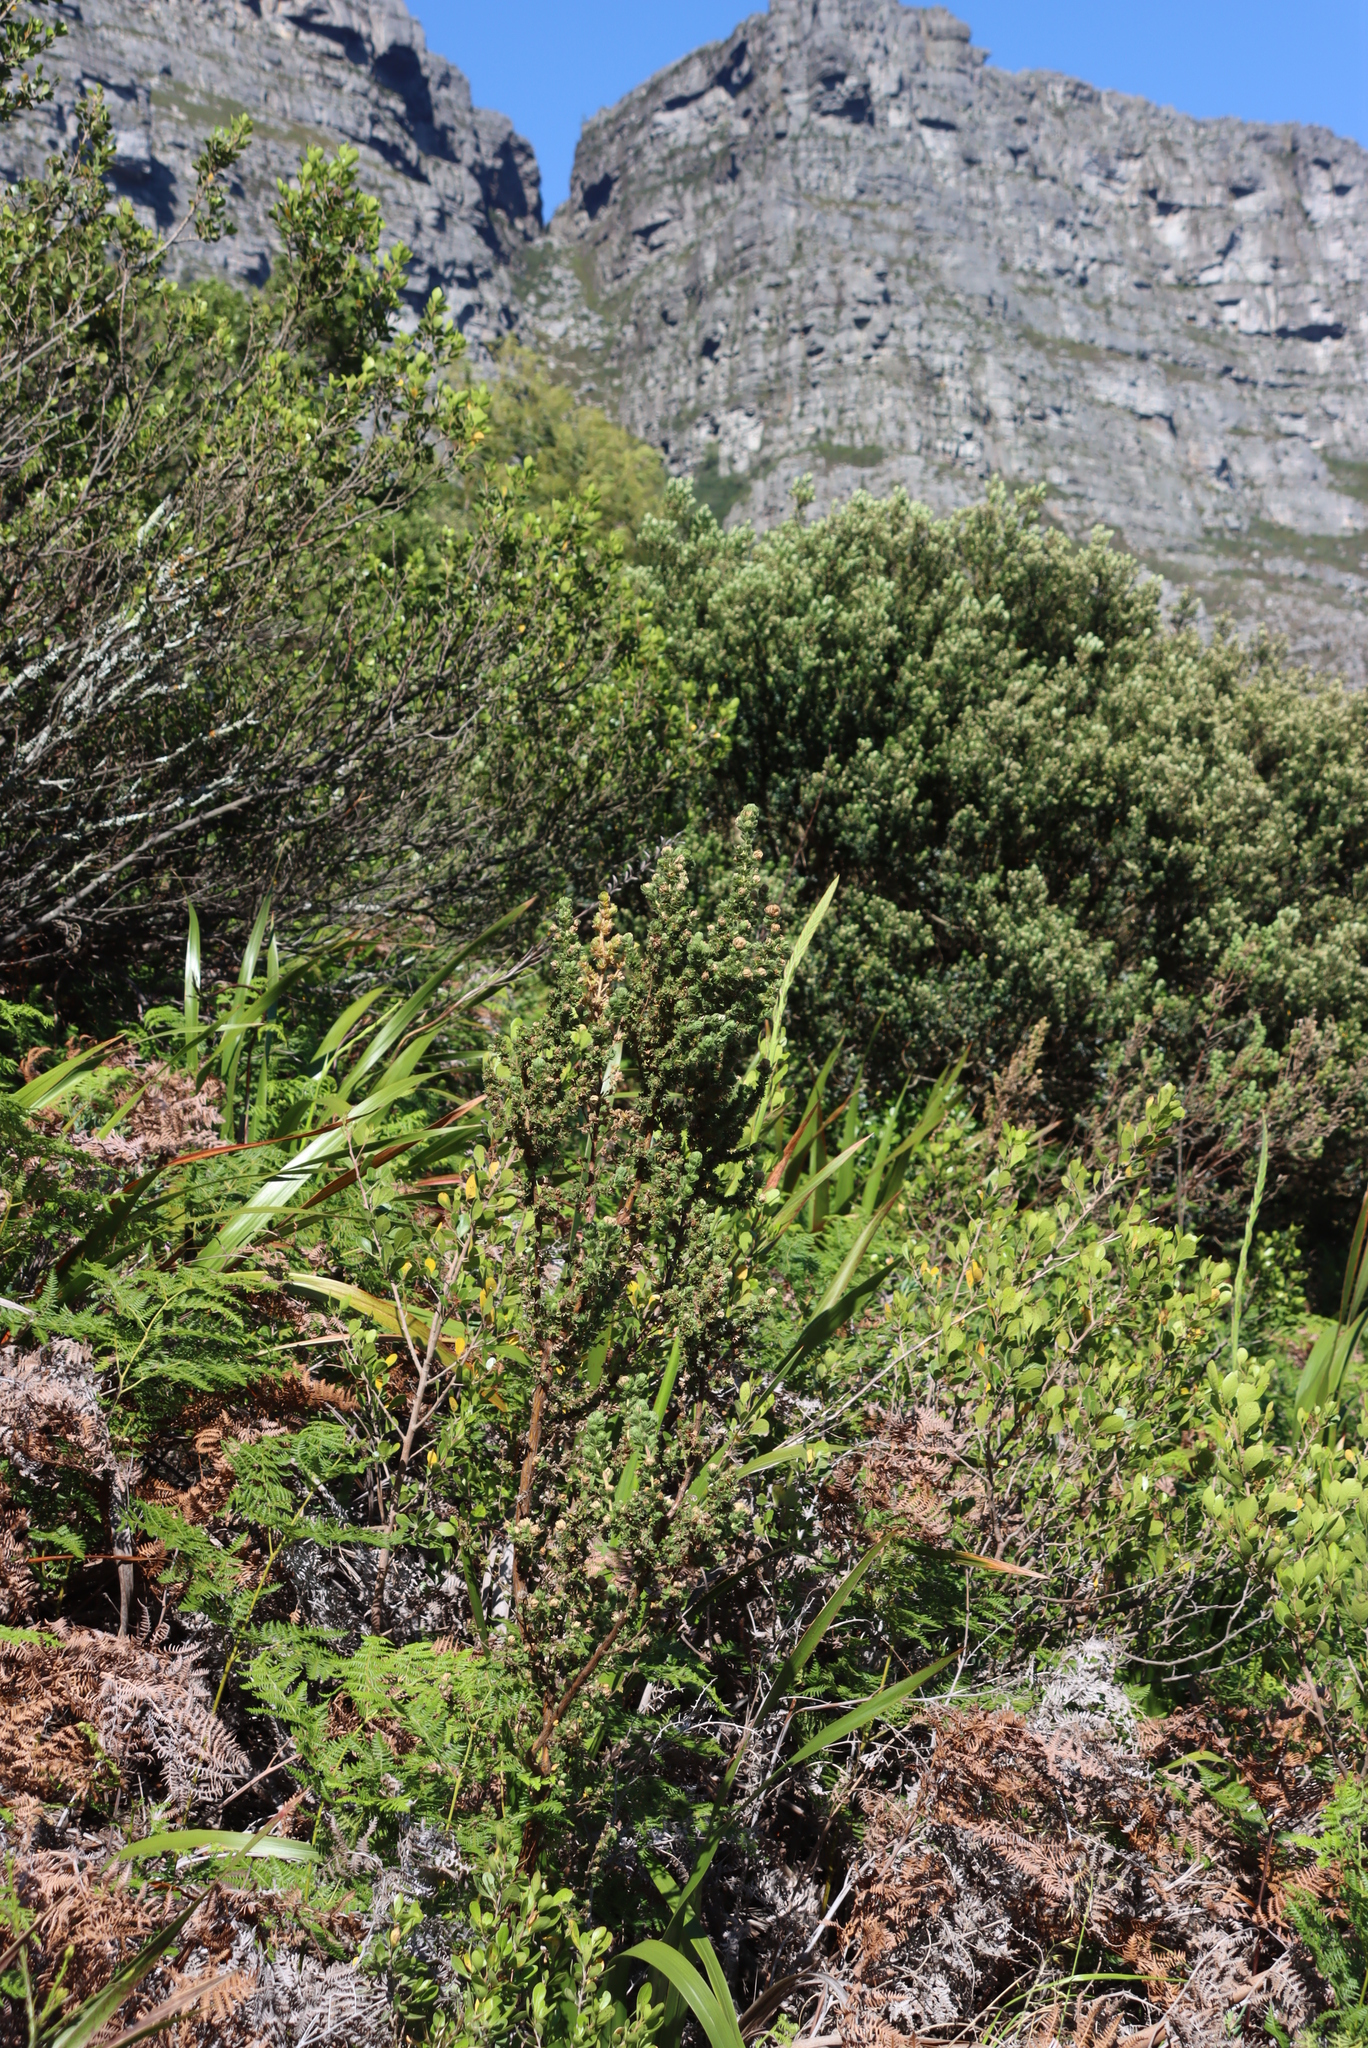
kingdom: Plantae
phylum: Tracheophyta
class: Magnoliopsida
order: Rosales
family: Rosaceae
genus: Cliffortia
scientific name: Cliffortia polygonifolia
